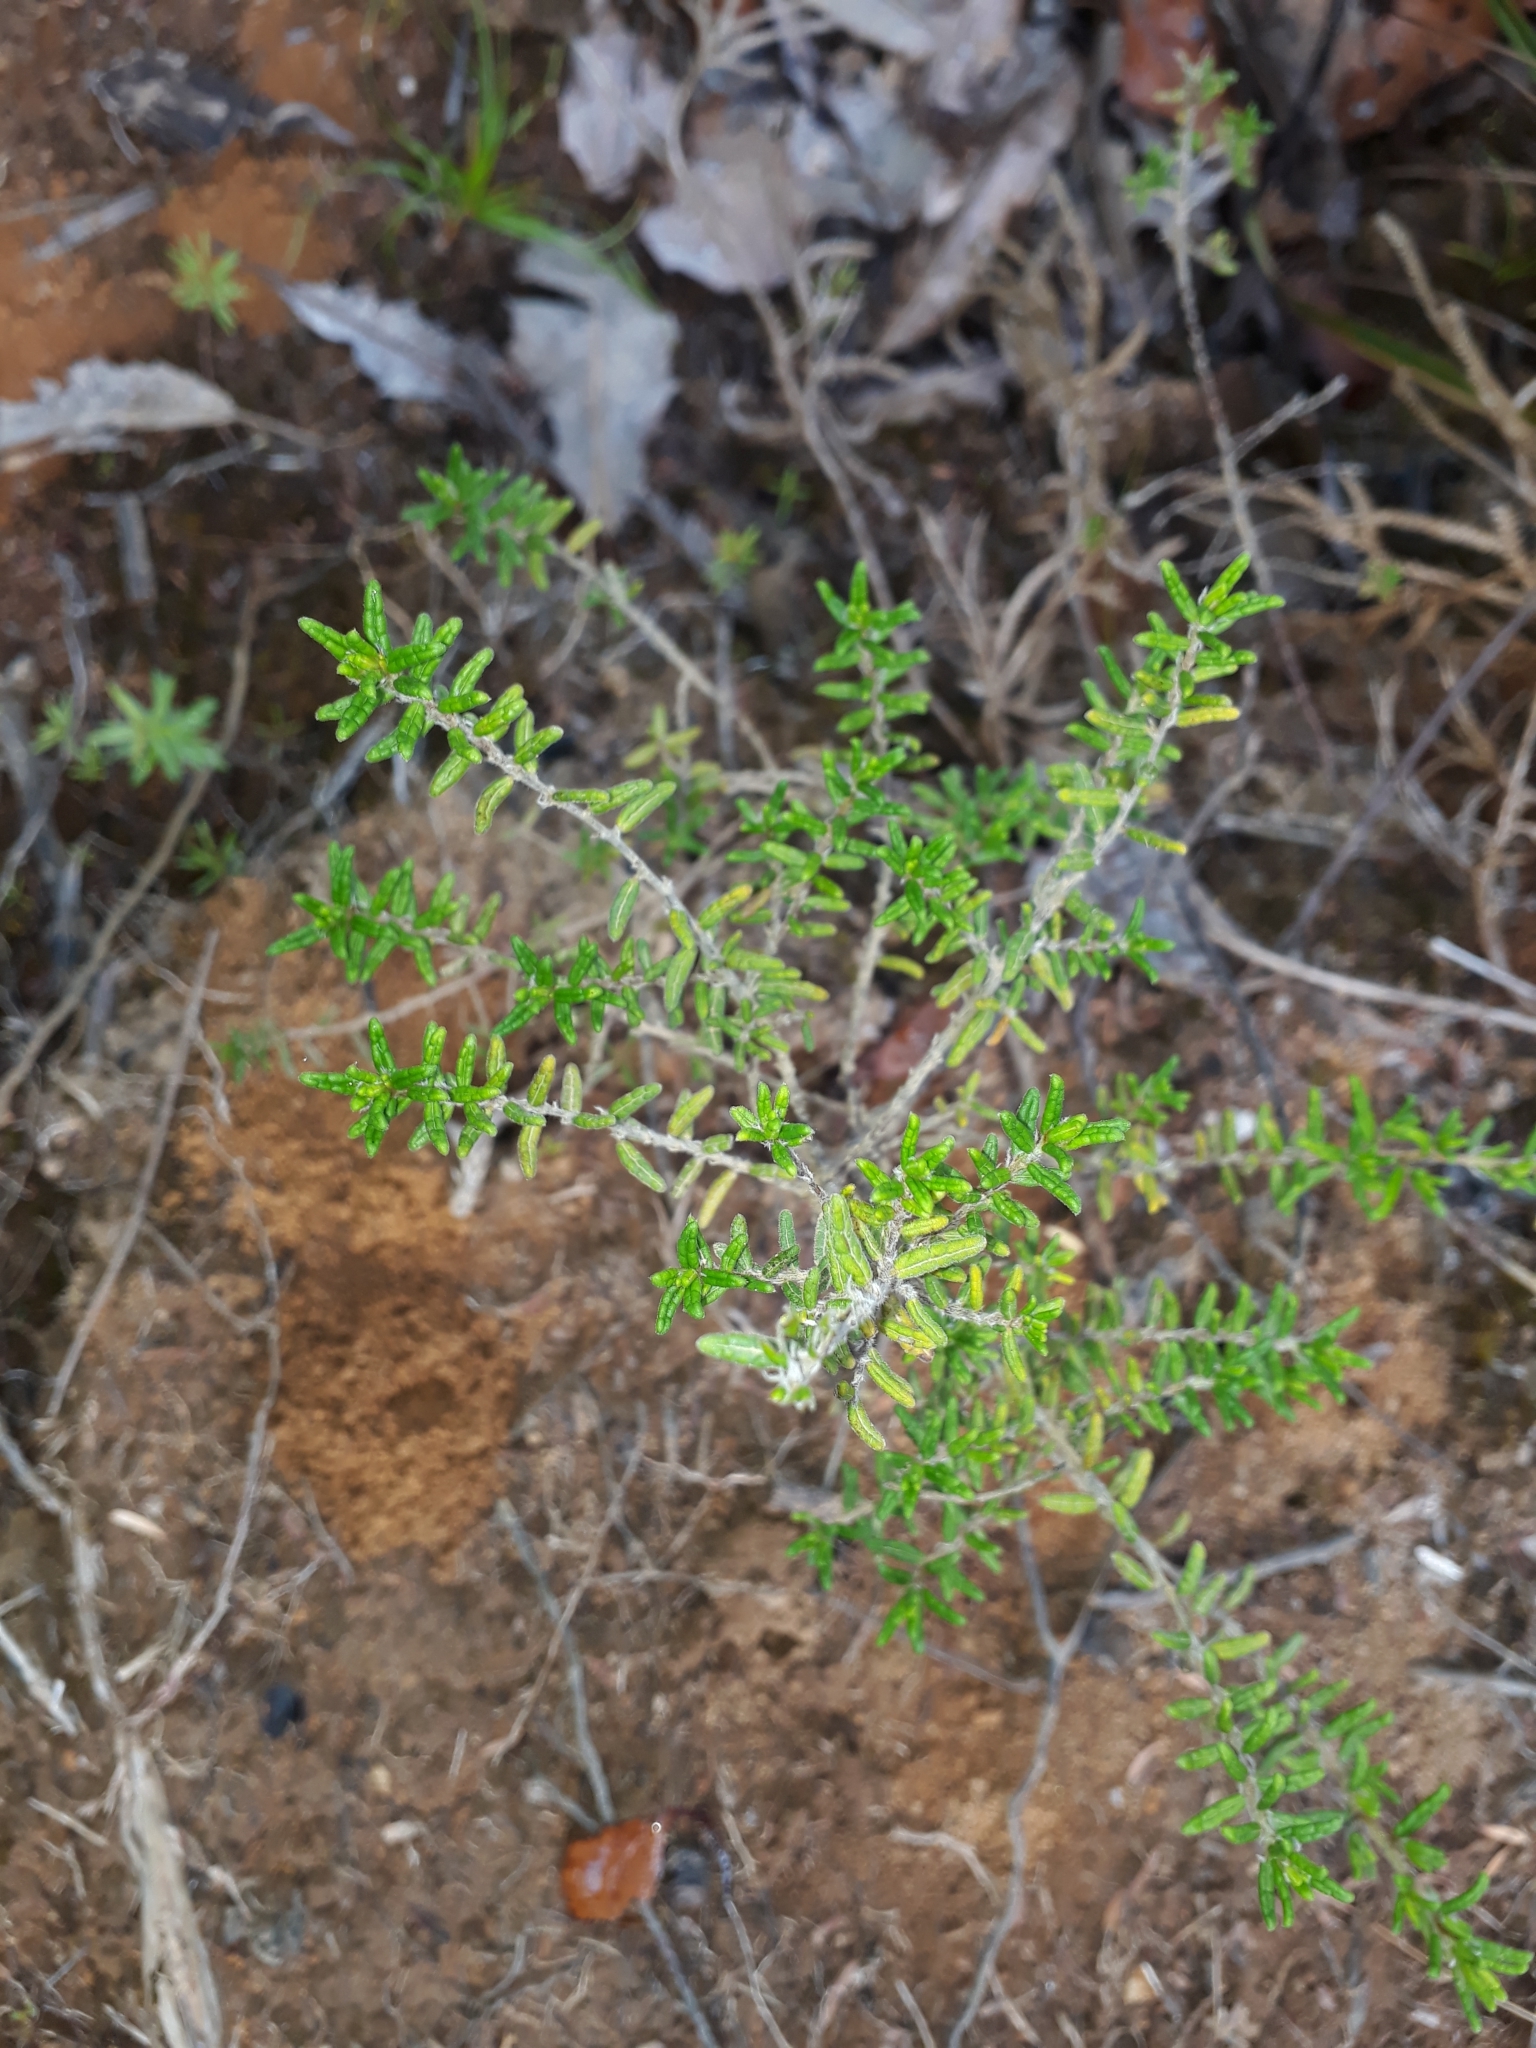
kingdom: Plantae
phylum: Tracheophyta
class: Magnoliopsida
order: Rosales
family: Rhamnaceae
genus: Pomaderris
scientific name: Pomaderris amoena
